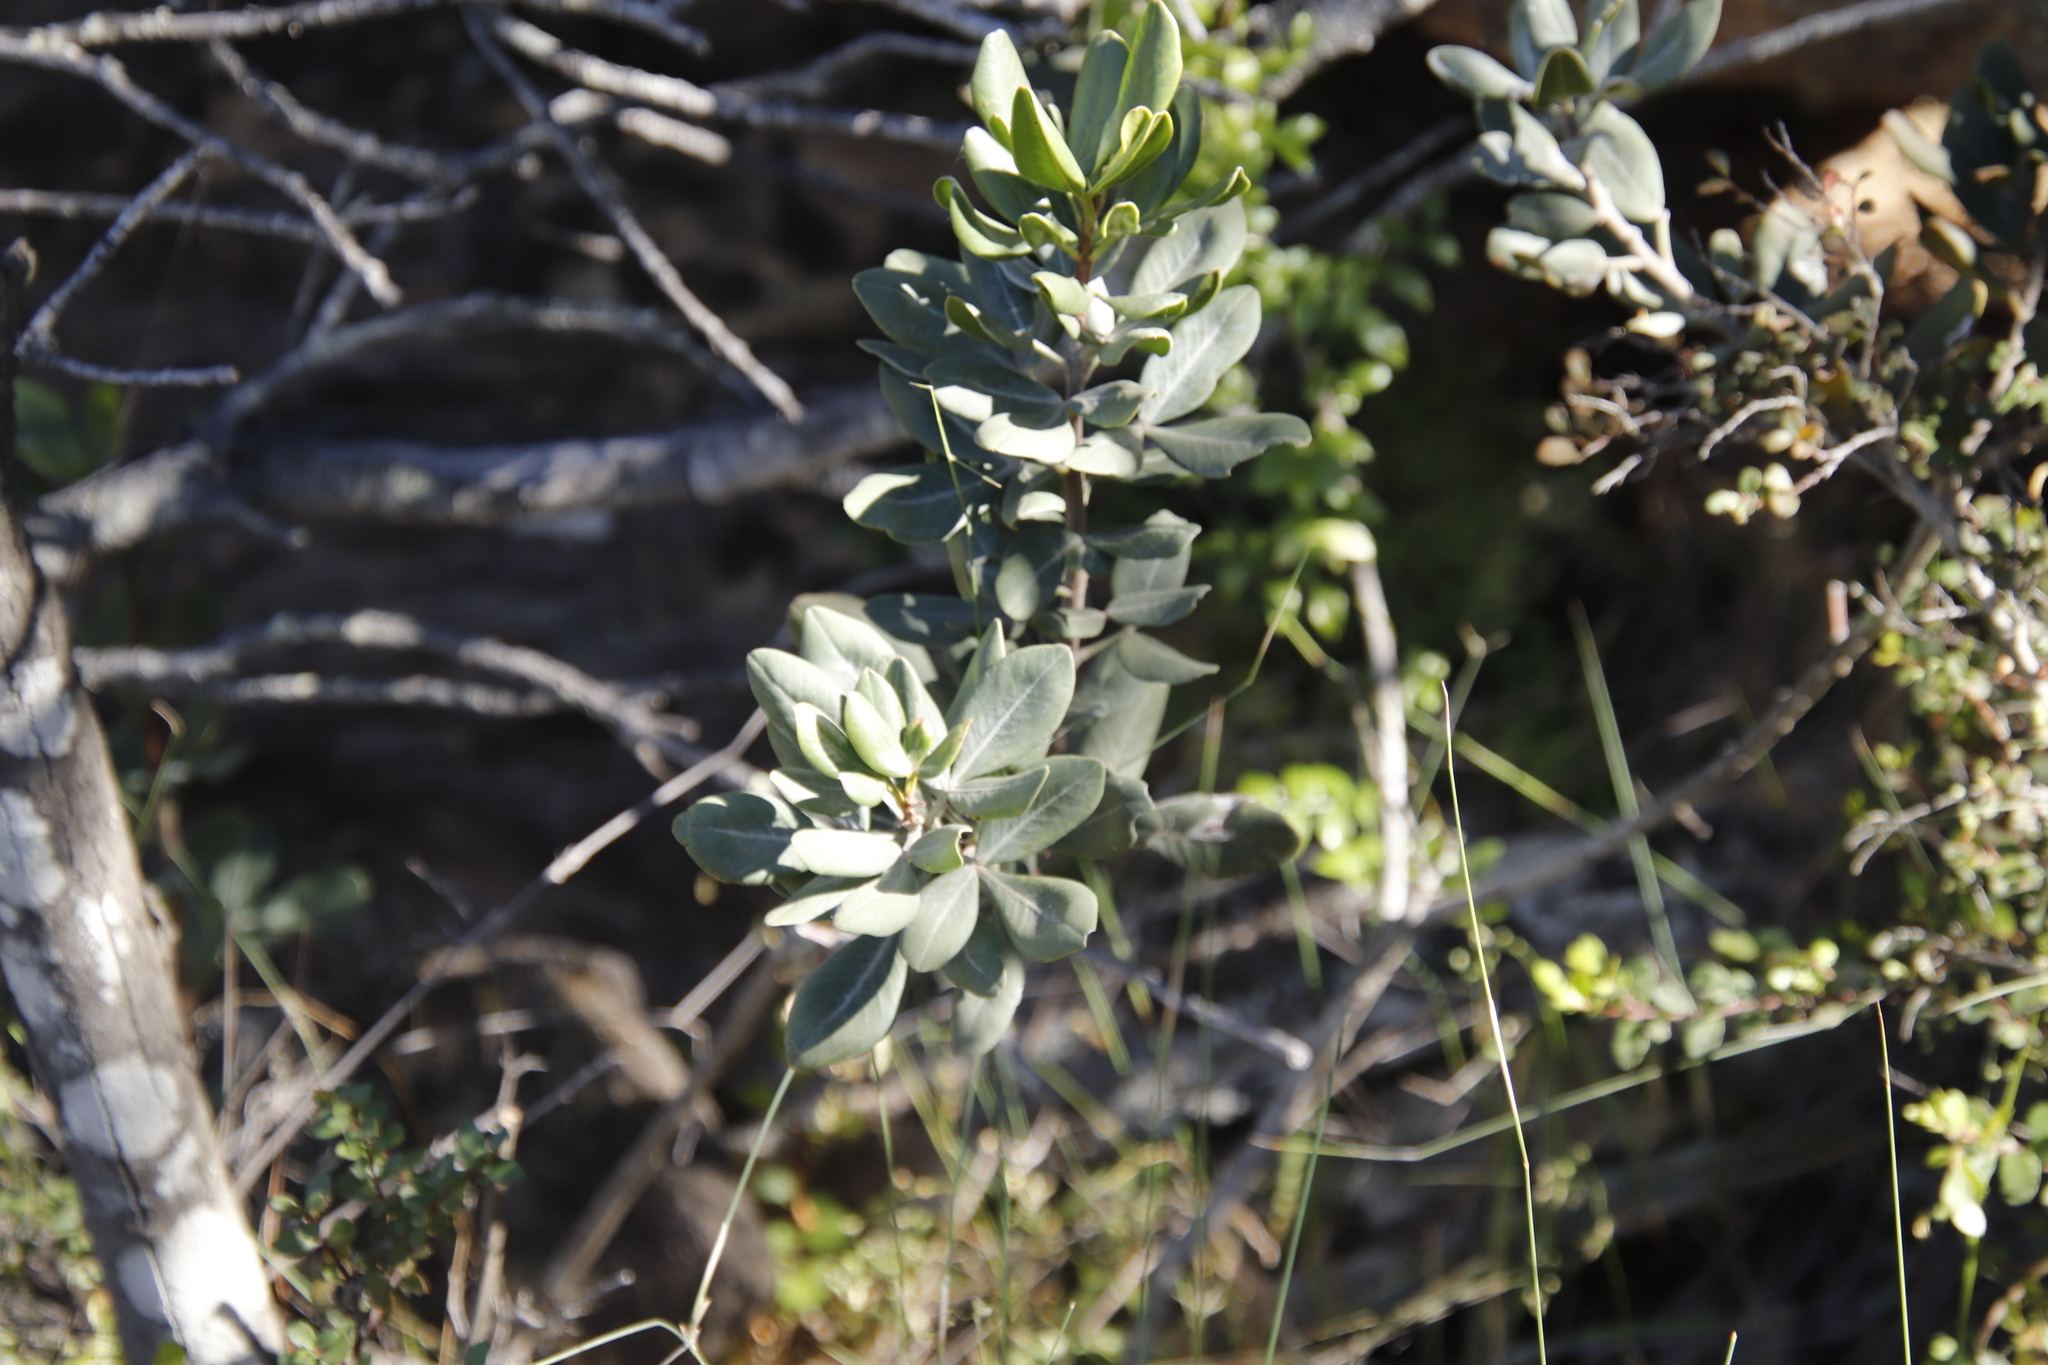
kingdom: Plantae
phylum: Tracheophyta
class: Magnoliopsida
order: Sapindales
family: Anacardiaceae
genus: Searsia
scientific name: Searsia scytophylla
